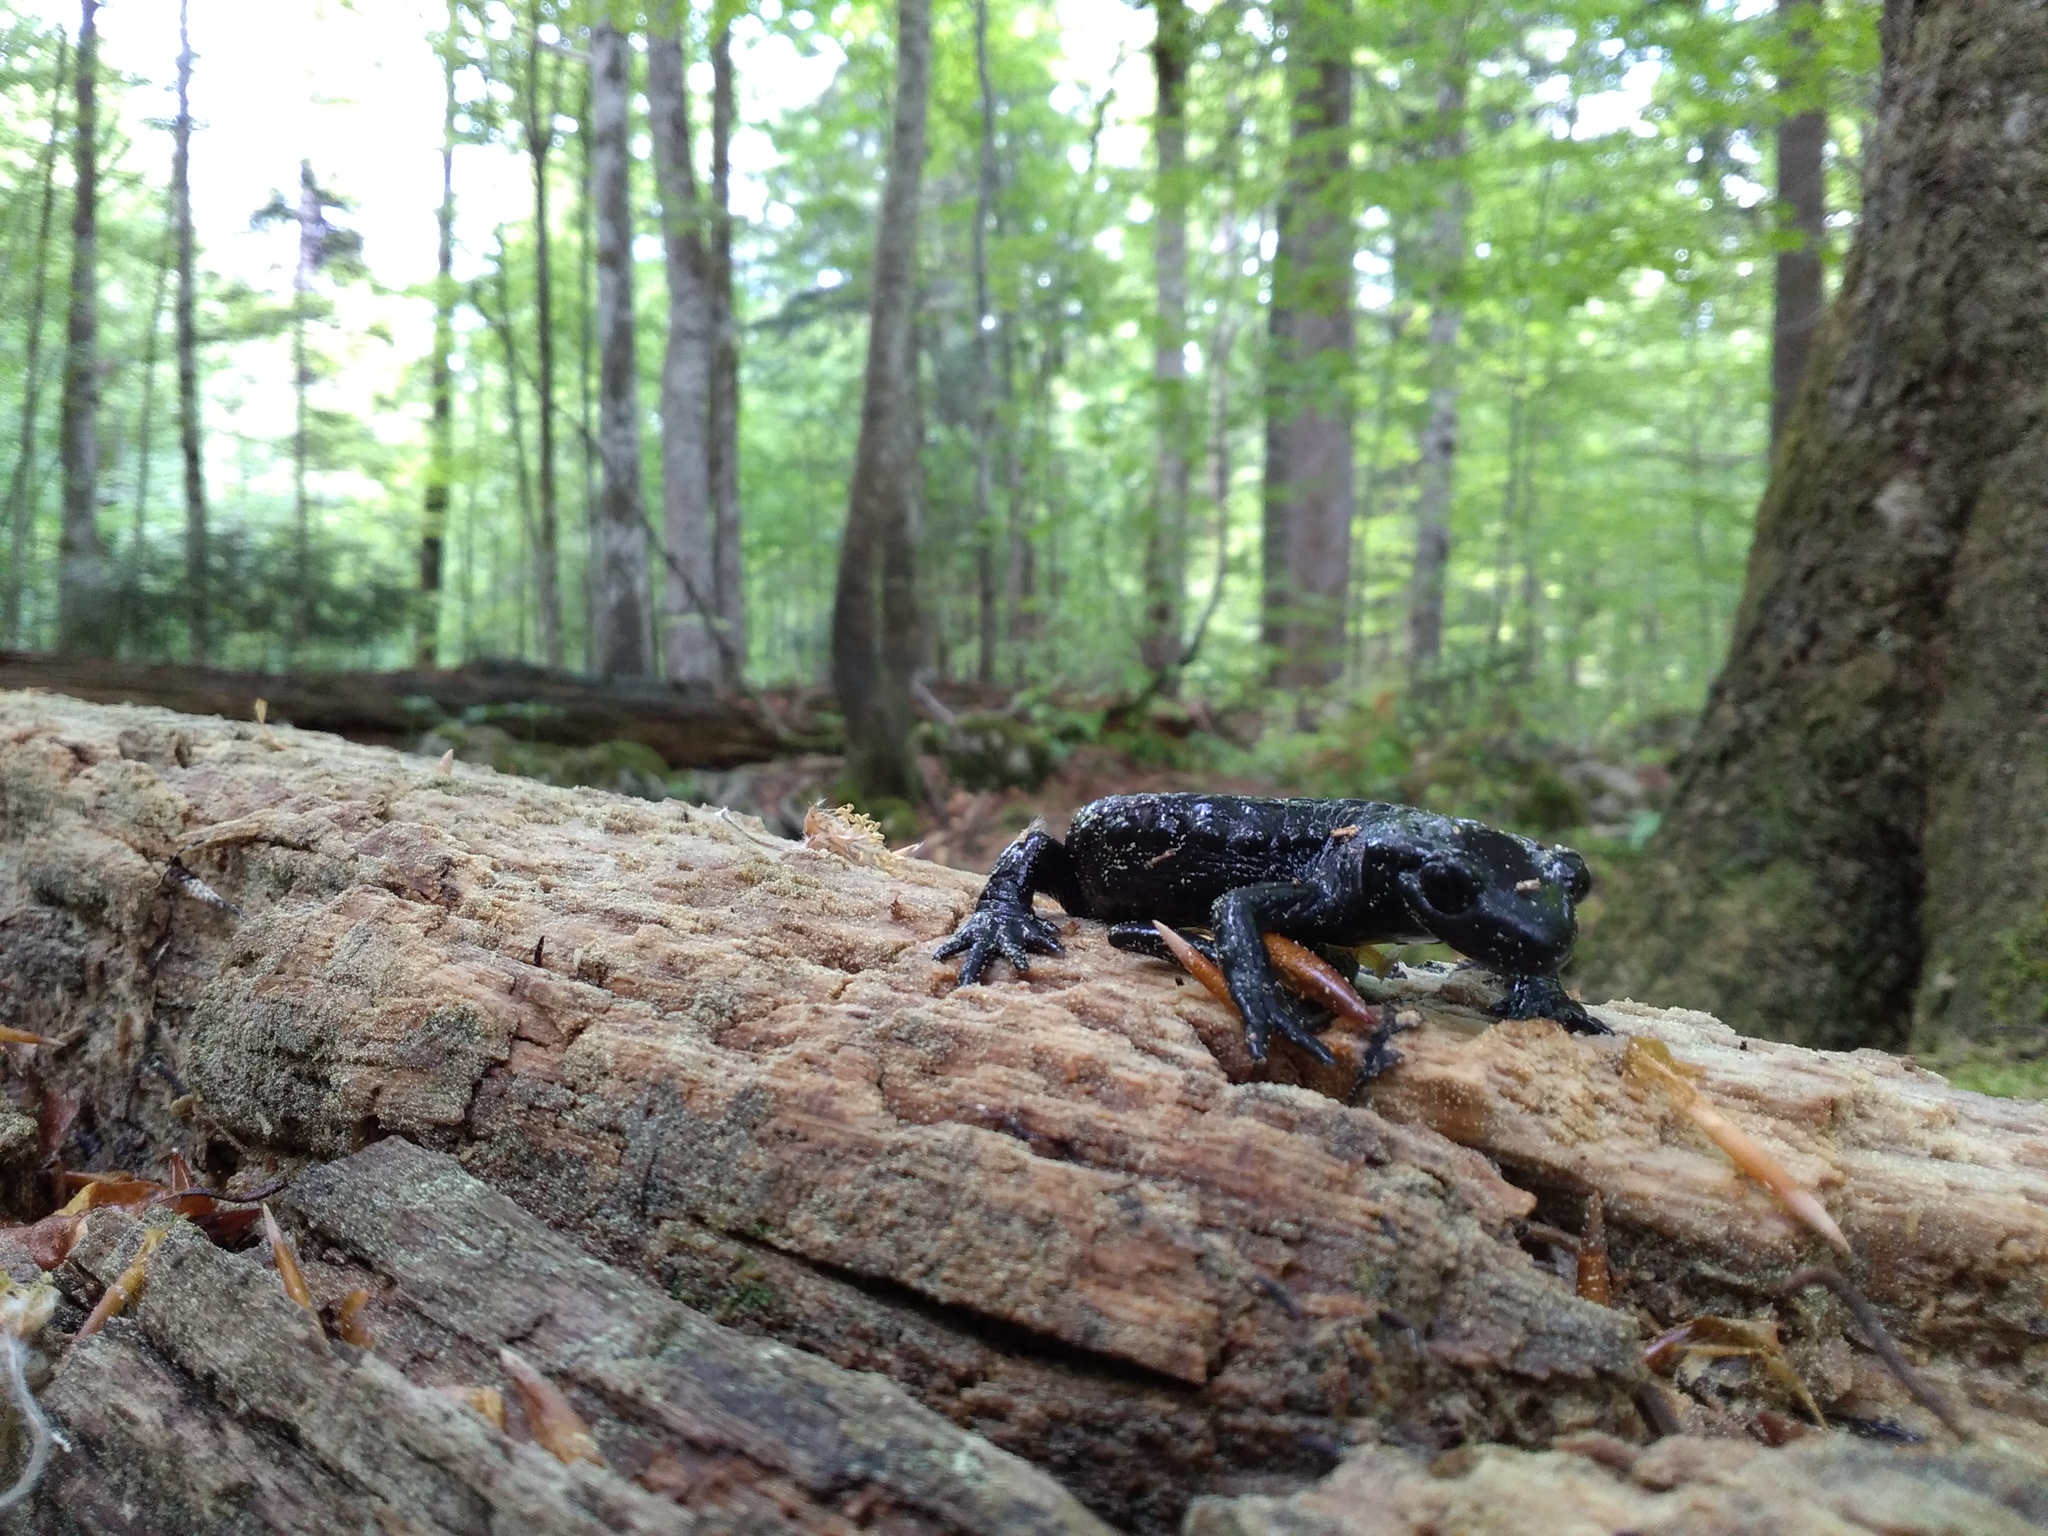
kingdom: Animalia
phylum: Chordata
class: Amphibia
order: Caudata
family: Salamandridae
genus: Salamandra
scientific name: Salamandra atra
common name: Alpine salamander
